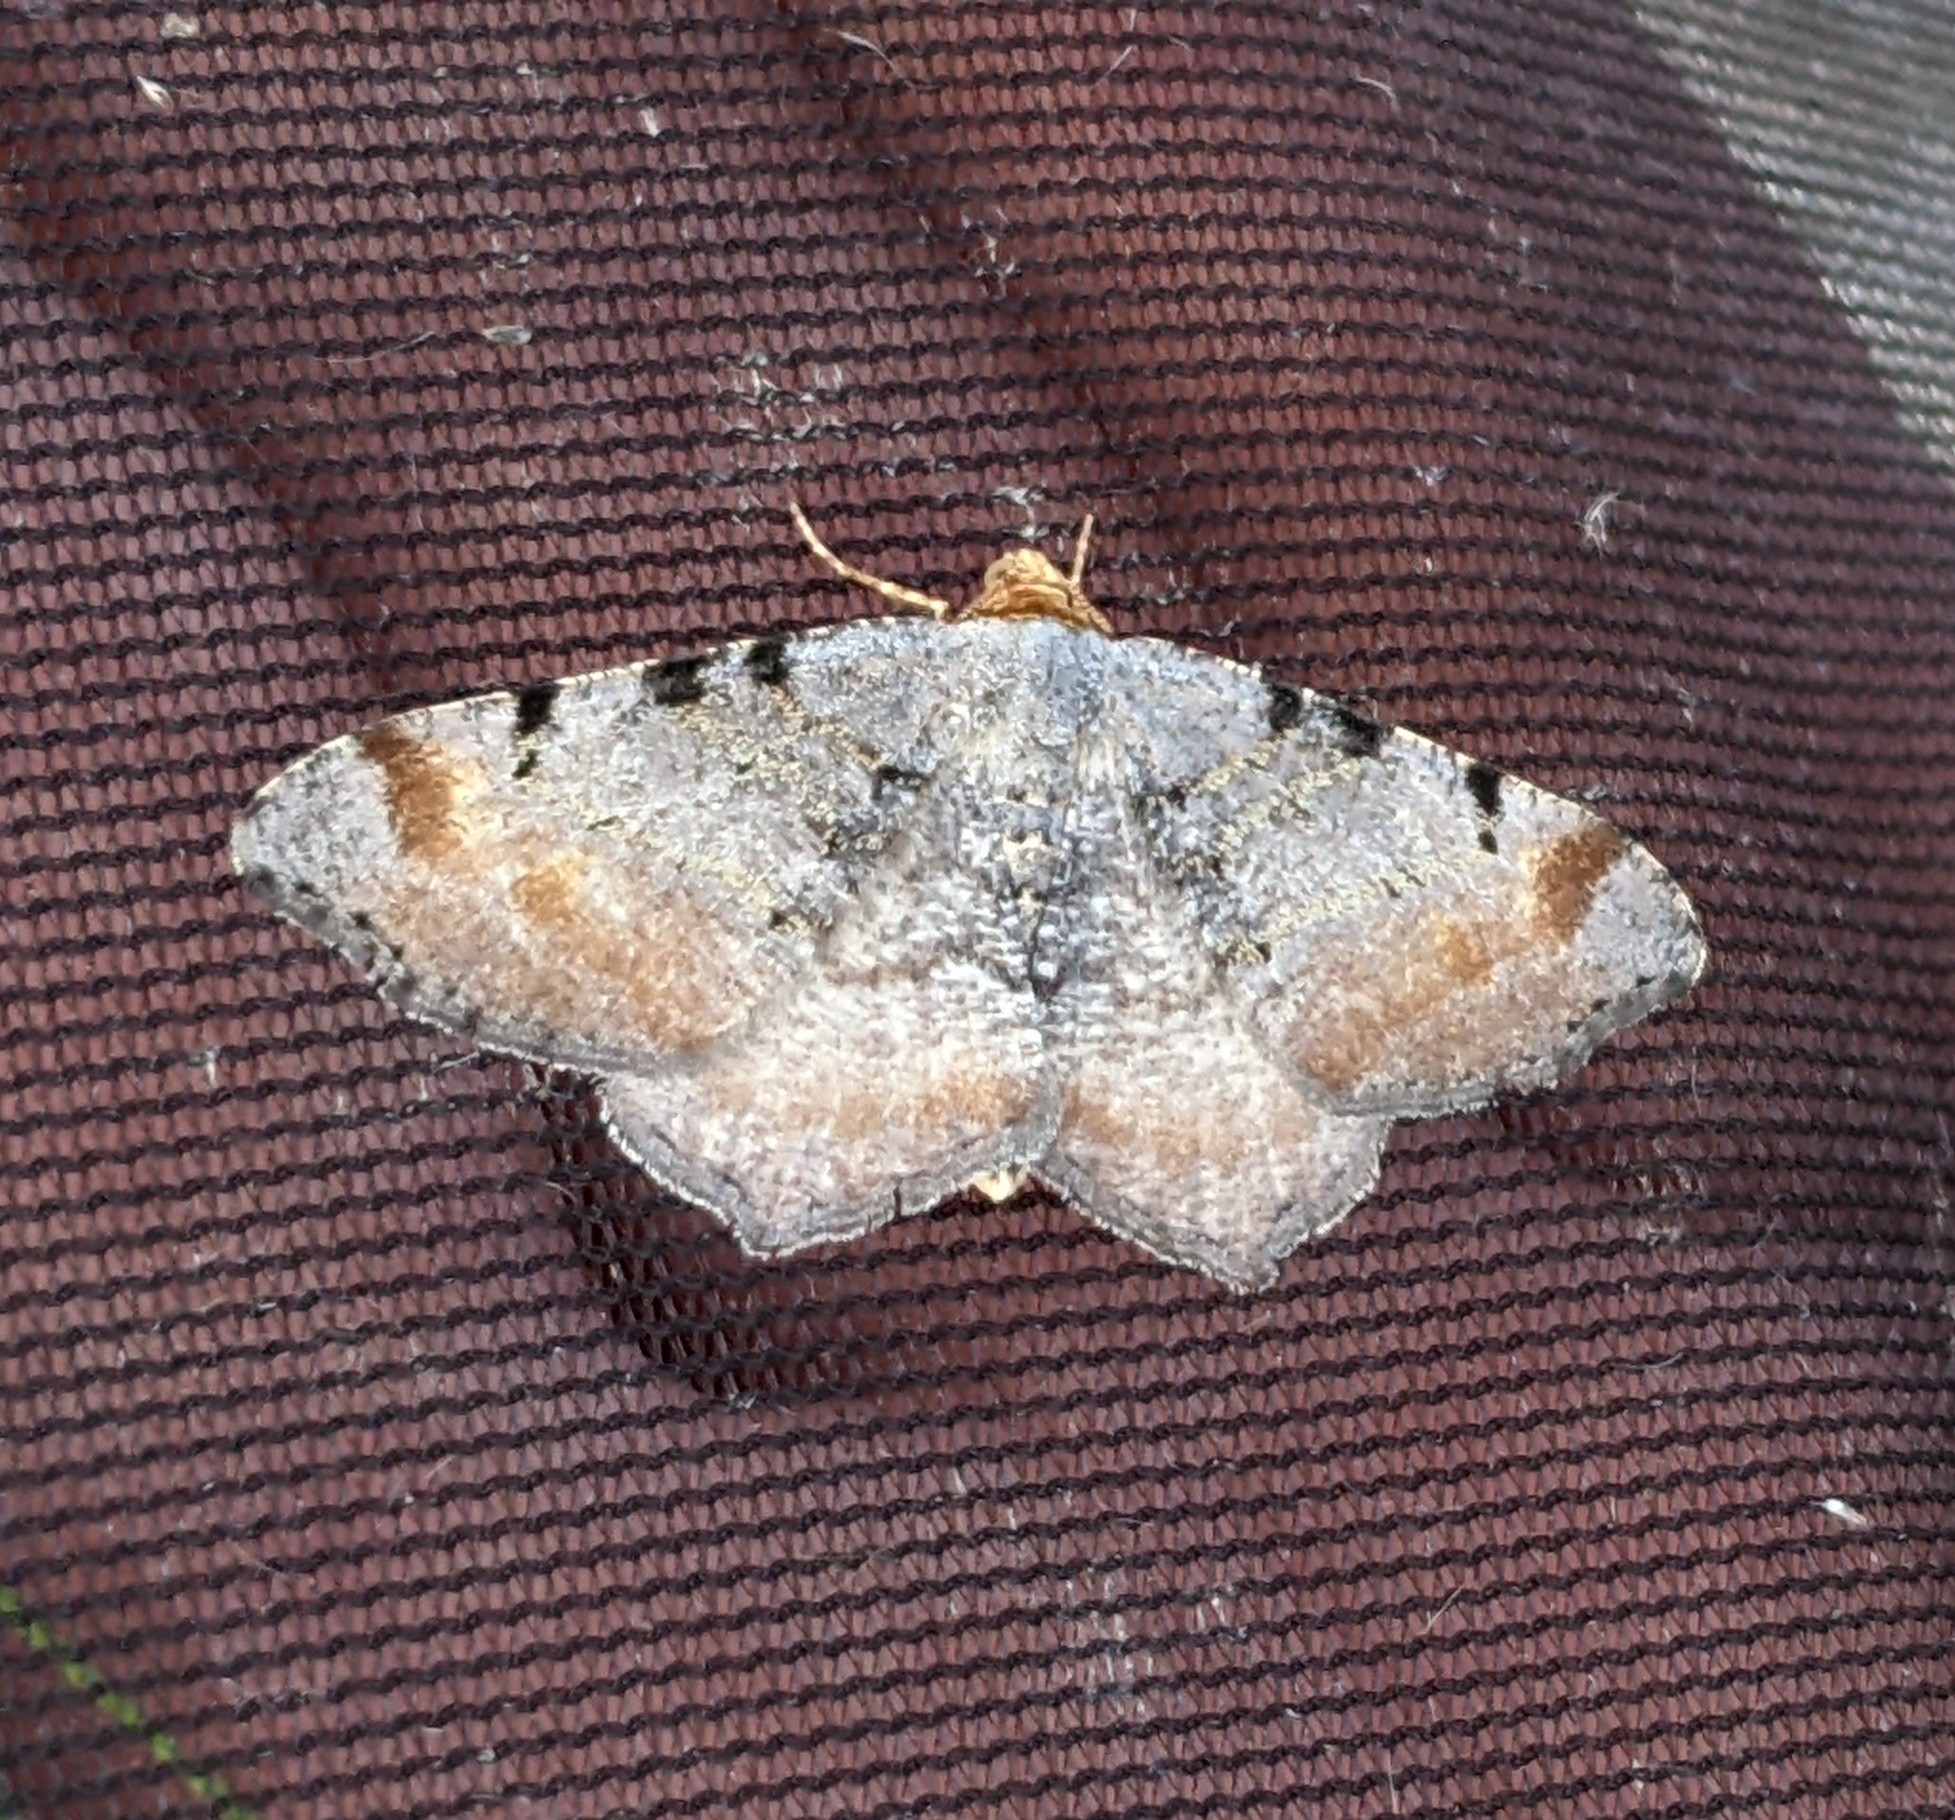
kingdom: Animalia
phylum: Arthropoda
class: Insecta
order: Lepidoptera
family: Geometridae
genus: Macaria
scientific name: Macaria adonis
